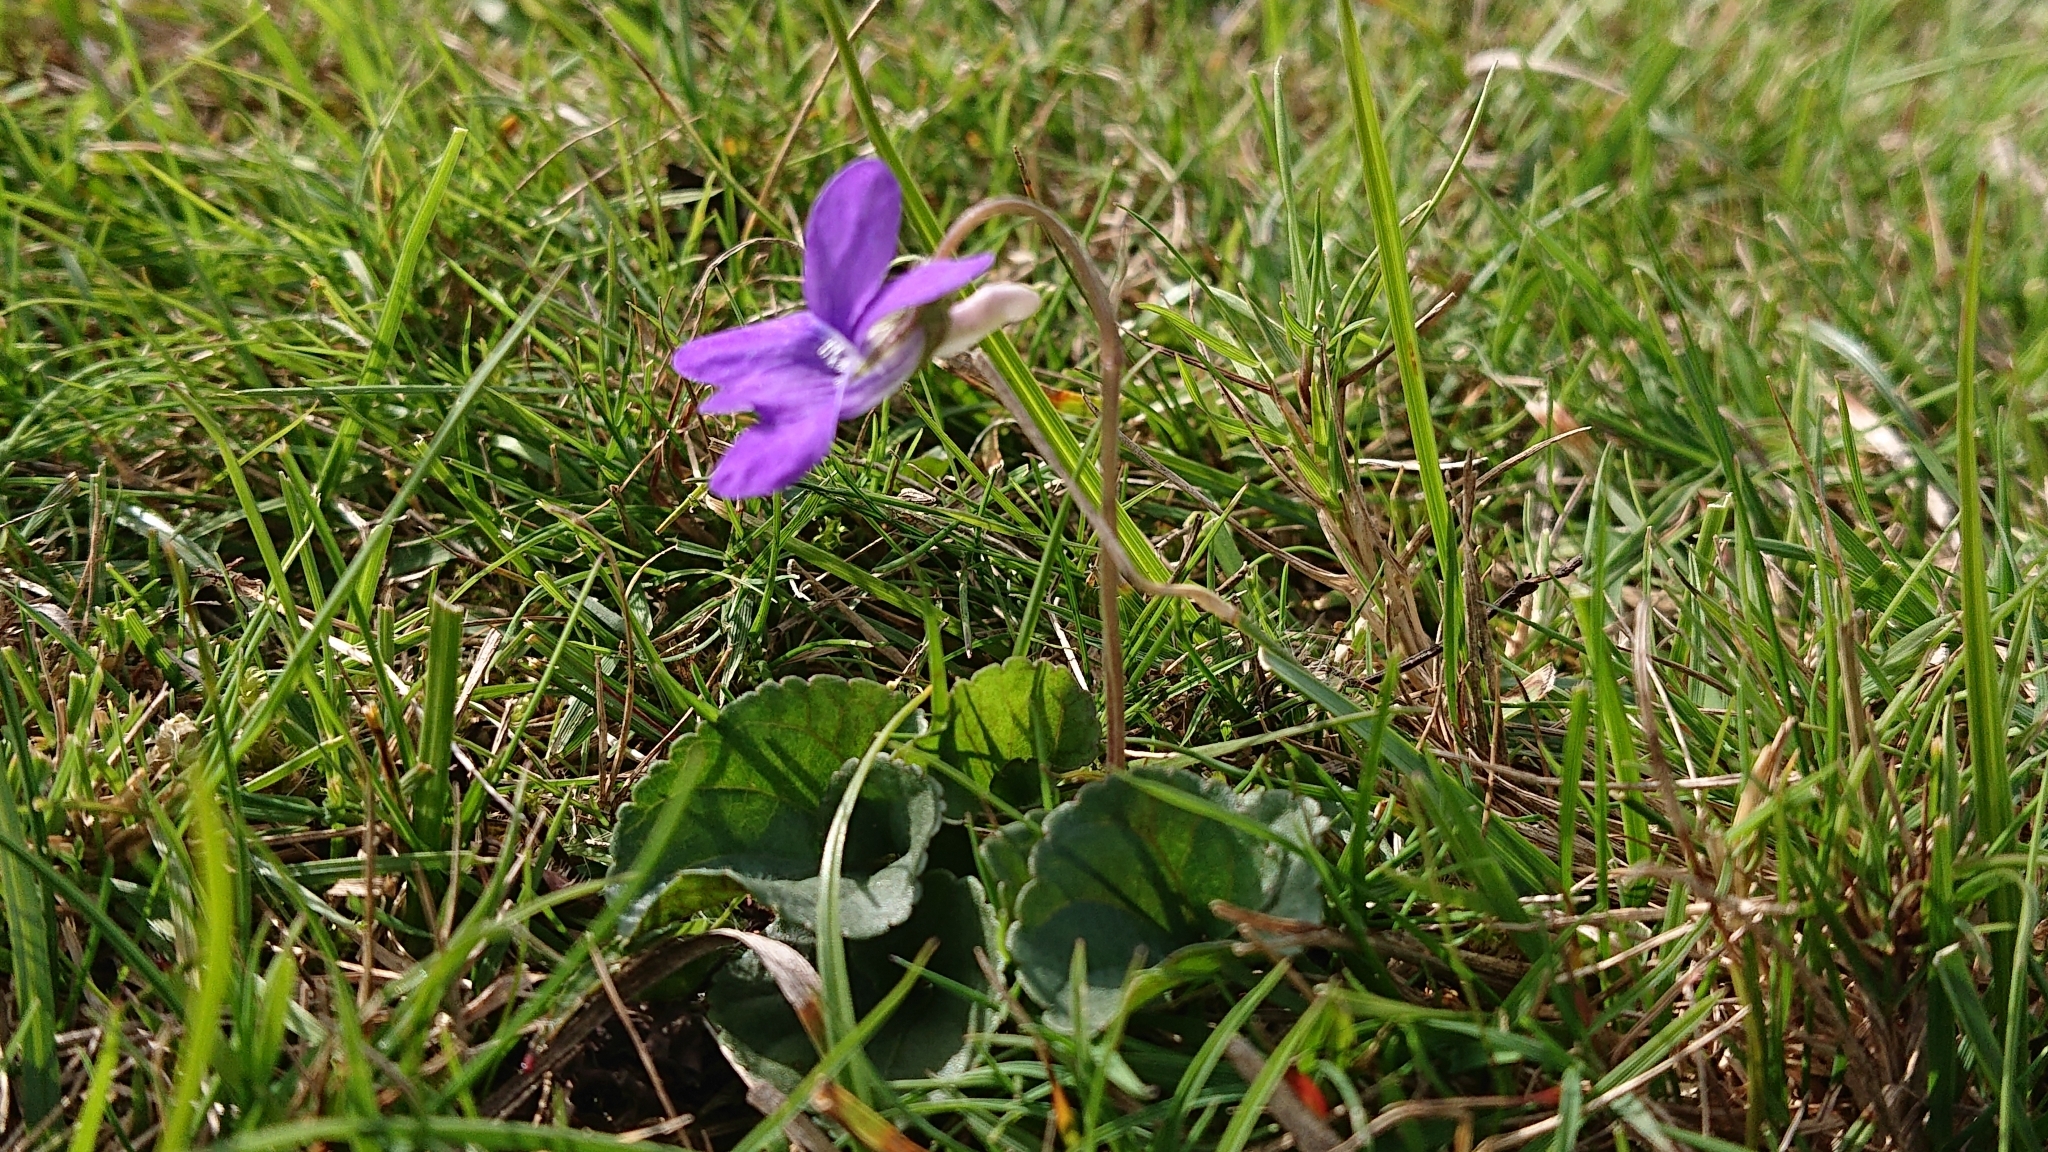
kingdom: Plantae
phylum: Tracheophyta
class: Magnoliopsida
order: Malpighiales
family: Violaceae
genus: Viola
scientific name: Viola riviniana
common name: Common dog-violet
